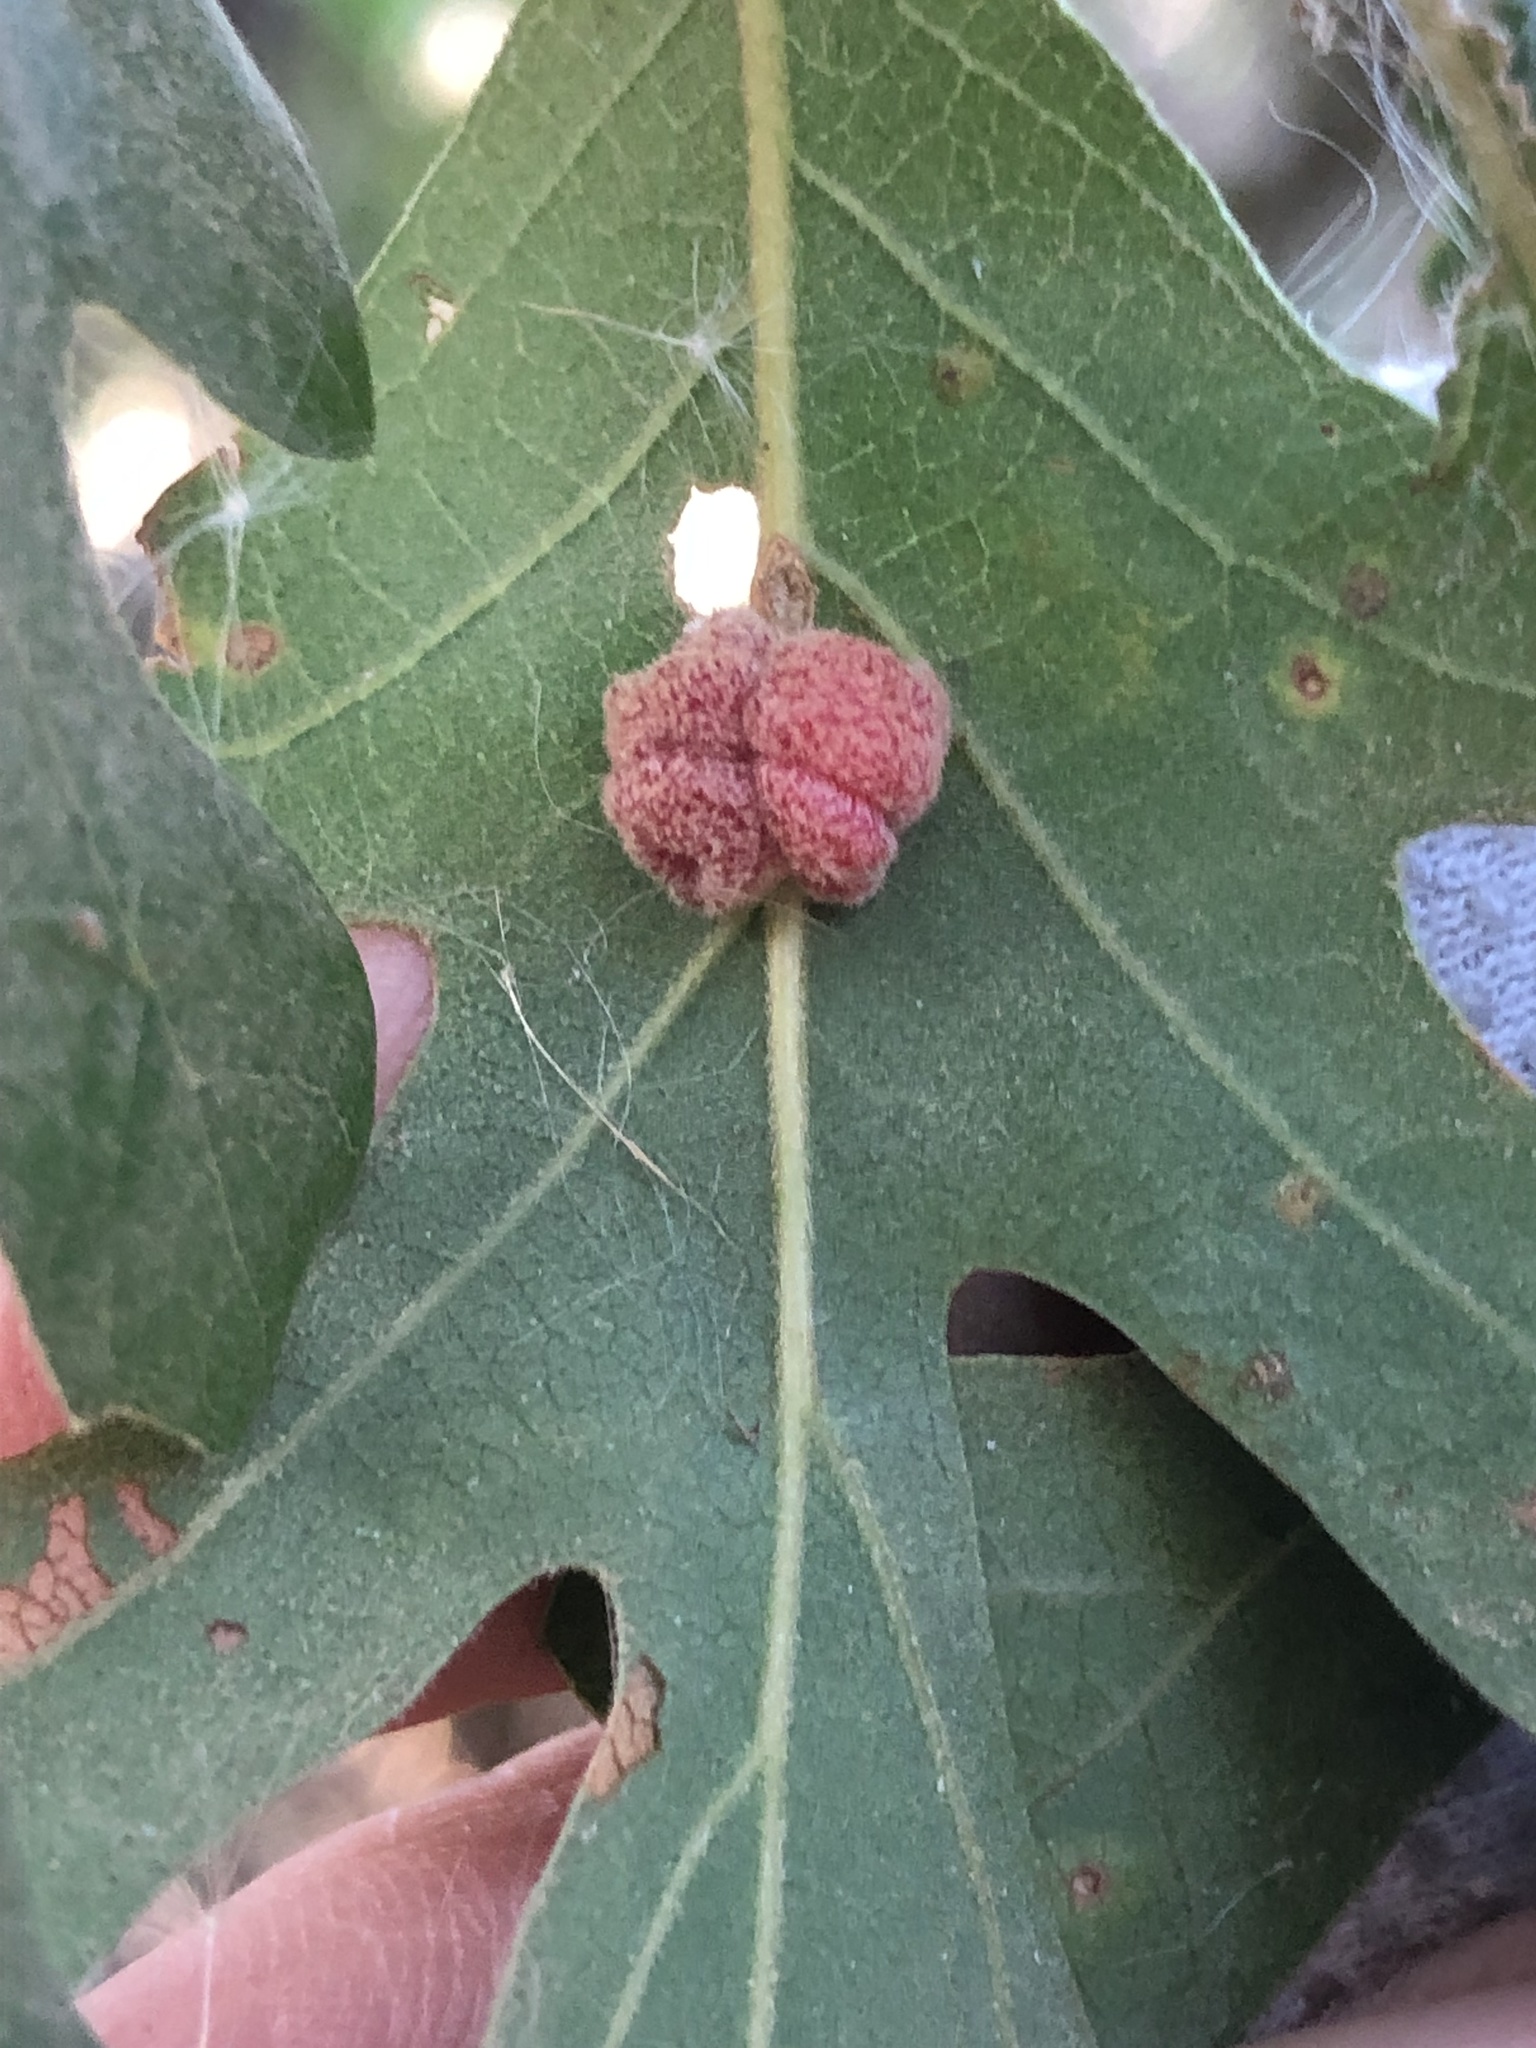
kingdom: Animalia
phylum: Arthropoda
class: Insecta
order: Hymenoptera
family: Cynipidae
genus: Andricus
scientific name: Andricus
